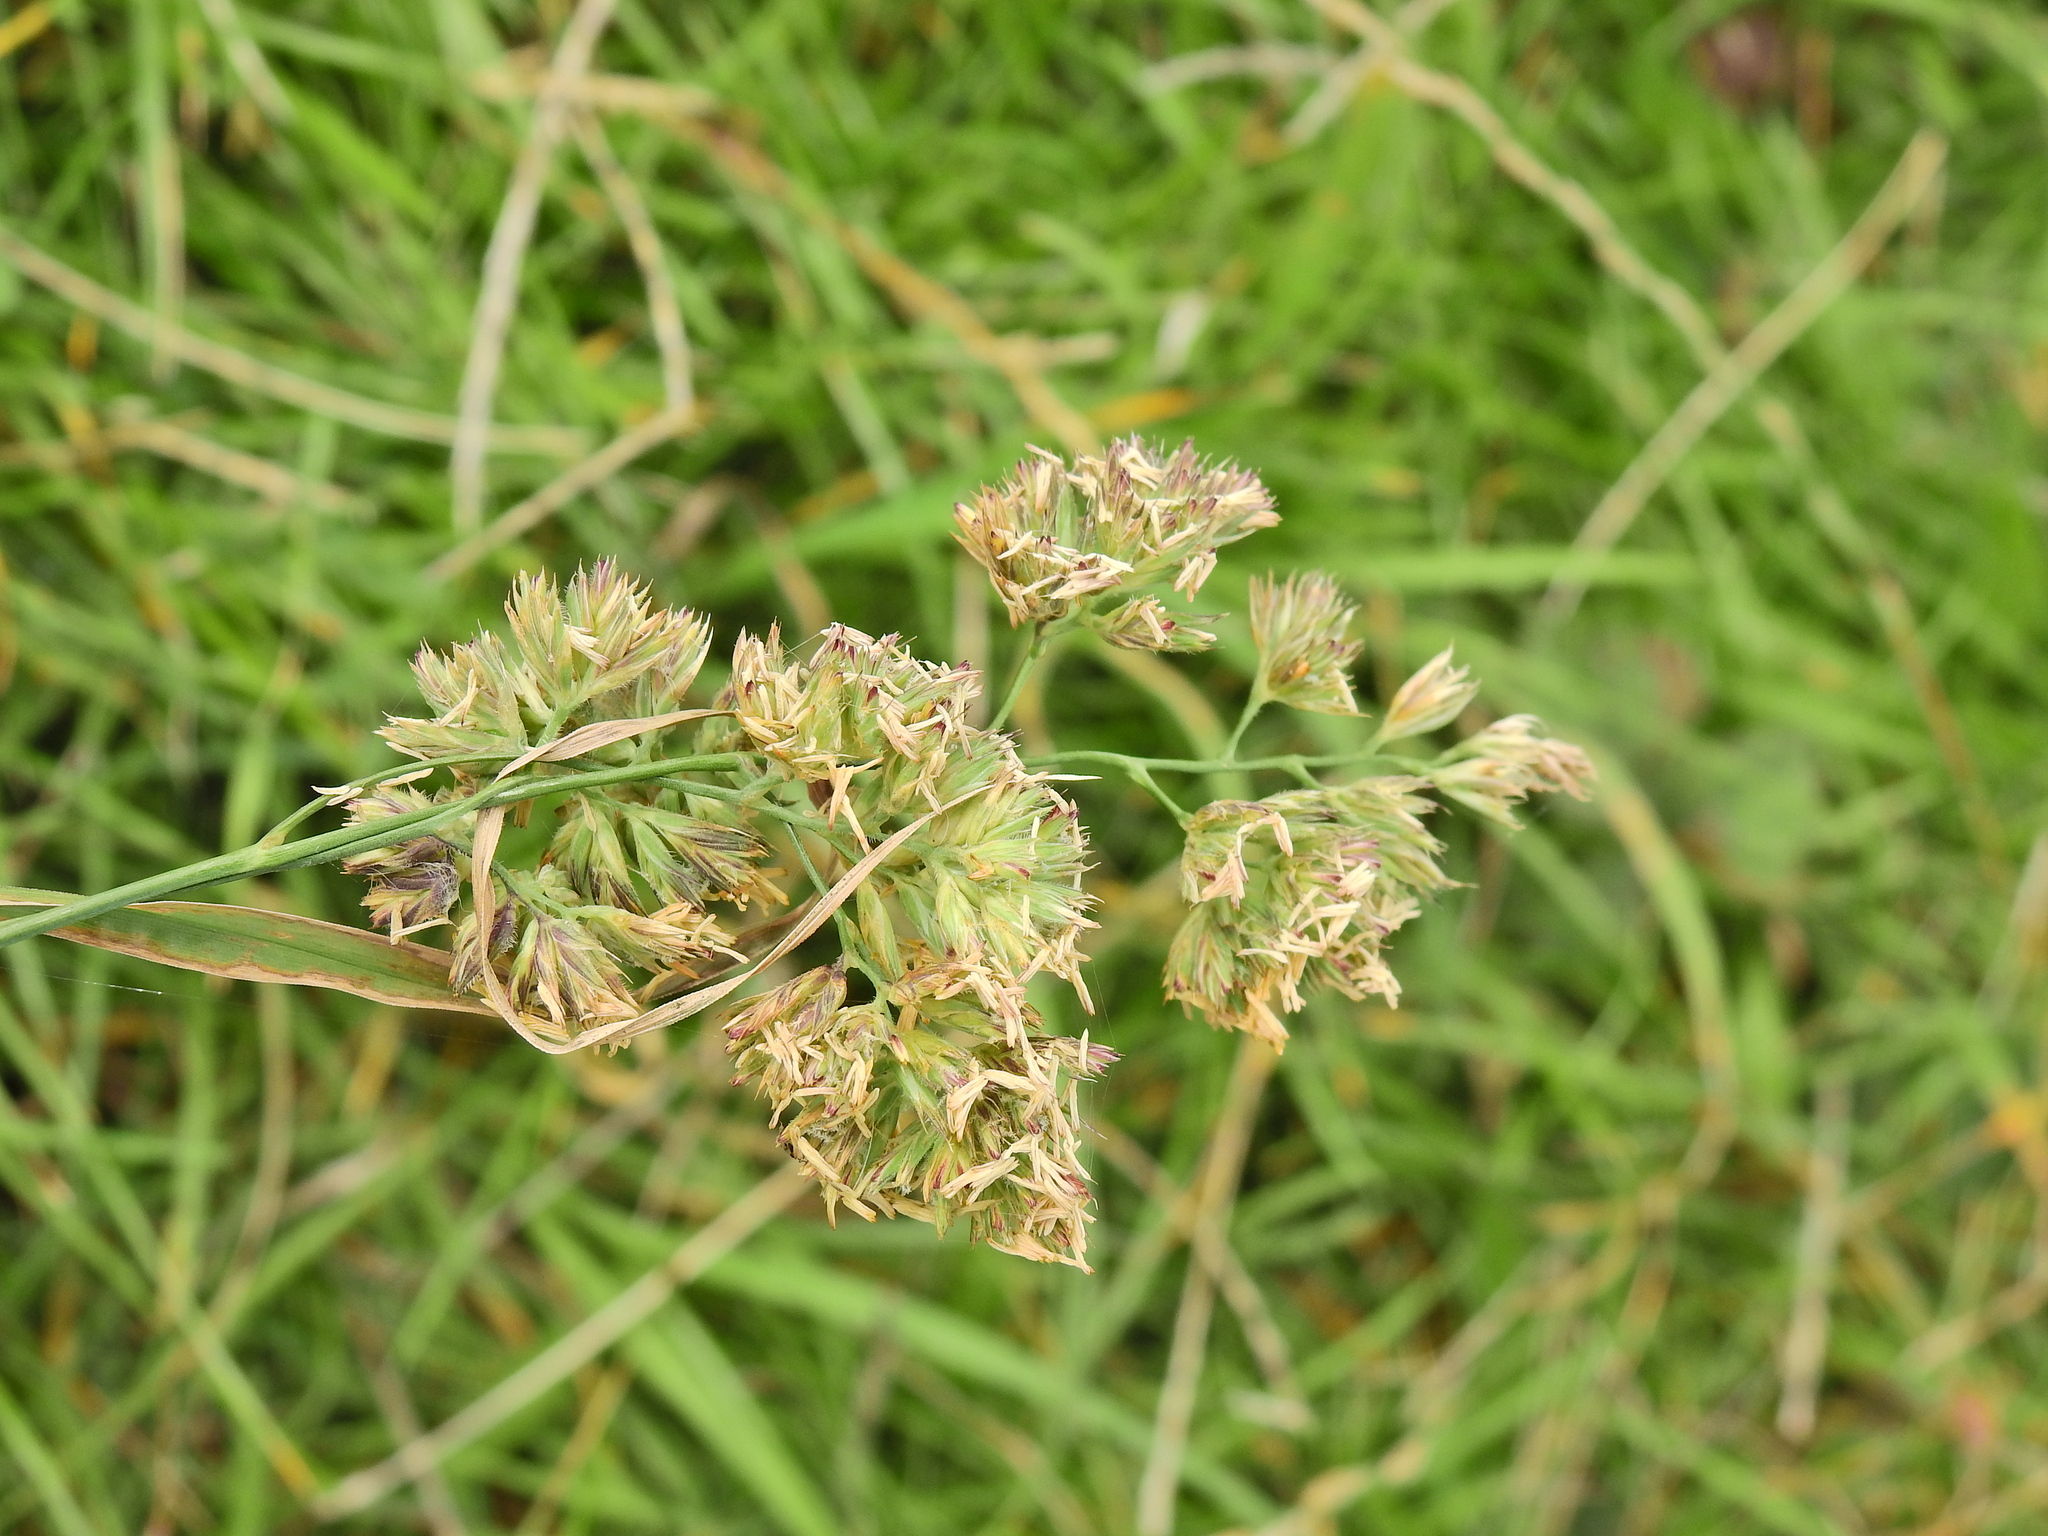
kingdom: Plantae
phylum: Tracheophyta
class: Liliopsida
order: Poales
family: Poaceae
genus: Dactylis
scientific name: Dactylis glomerata
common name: Orchardgrass
